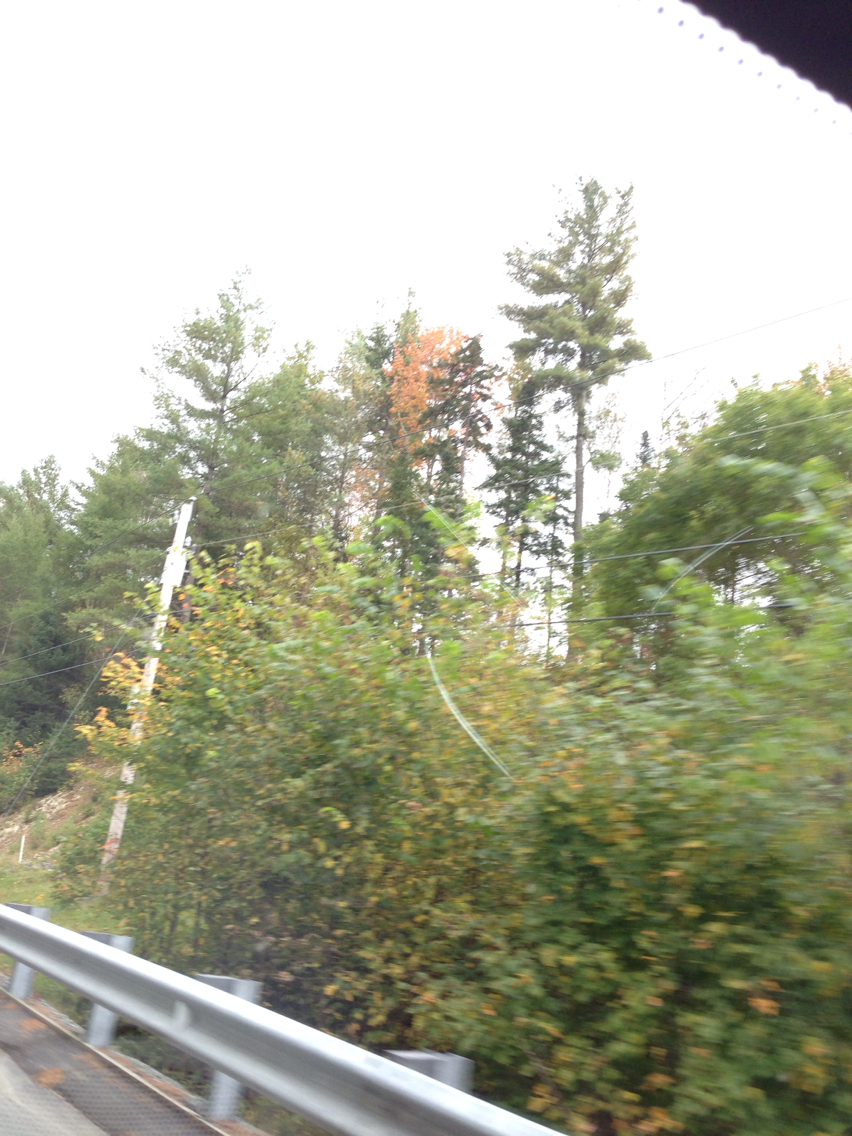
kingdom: Plantae
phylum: Tracheophyta
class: Pinopsida
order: Pinales
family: Pinaceae
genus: Pinus
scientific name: Pinus strobus
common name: Weymouth pine
